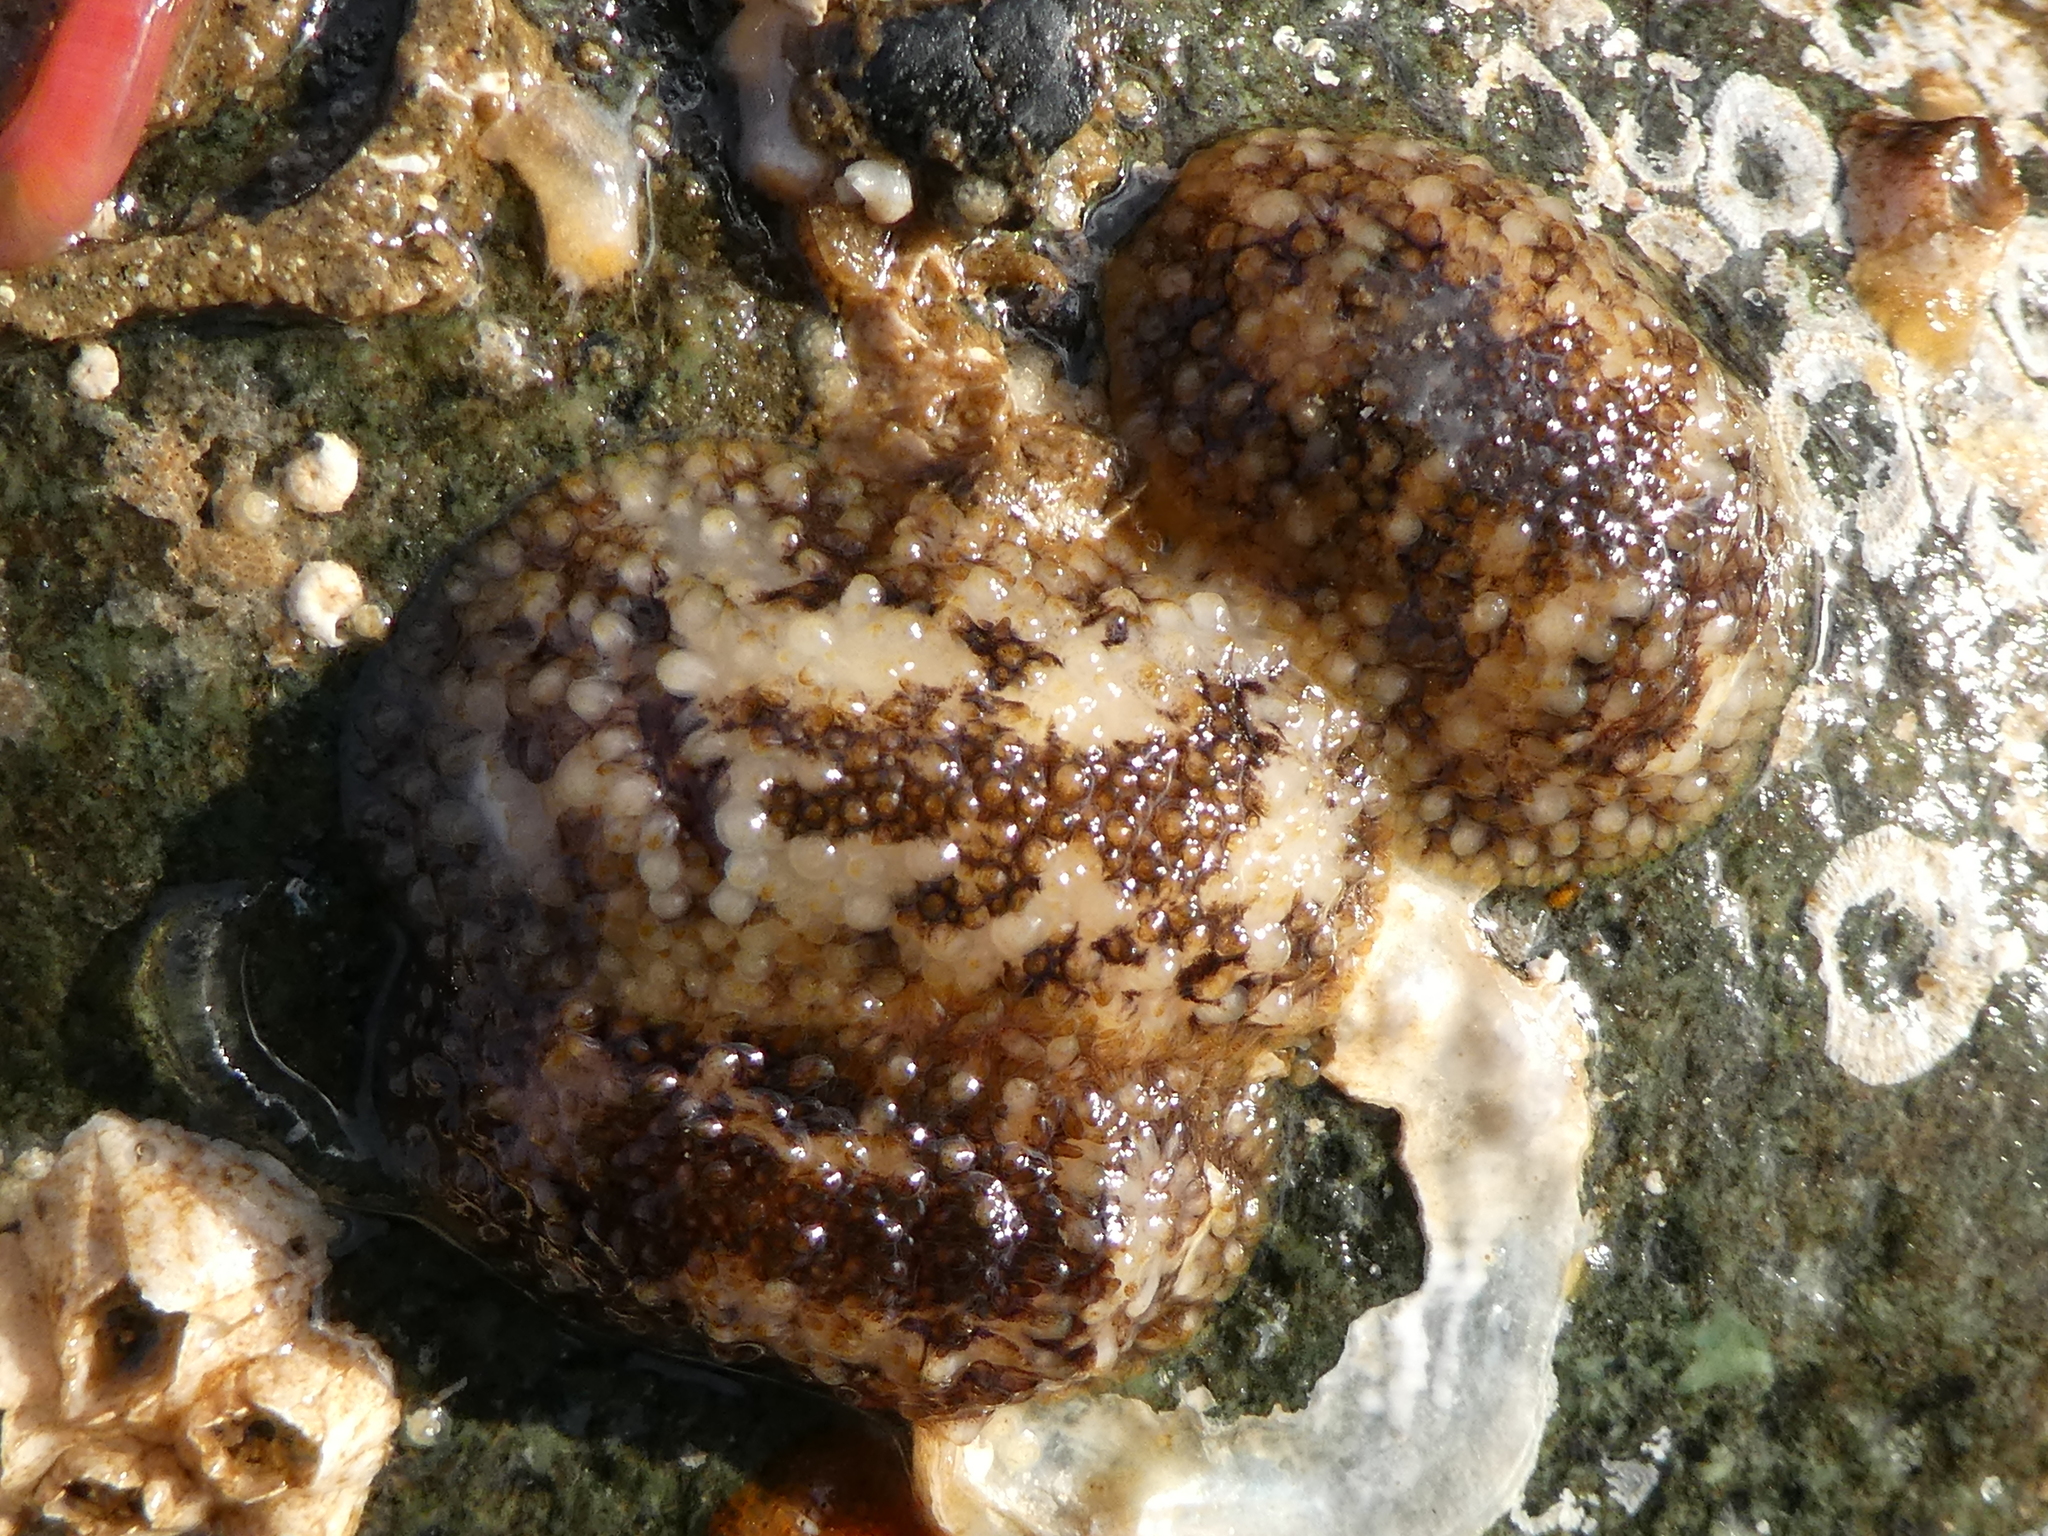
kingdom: Animalia
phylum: Mollusca
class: Gastropoda
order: Nudibranchia
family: Onchidorididae
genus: Onchidoris
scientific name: Onchidoris bilamellata
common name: Barnacle-eating onchidoris
